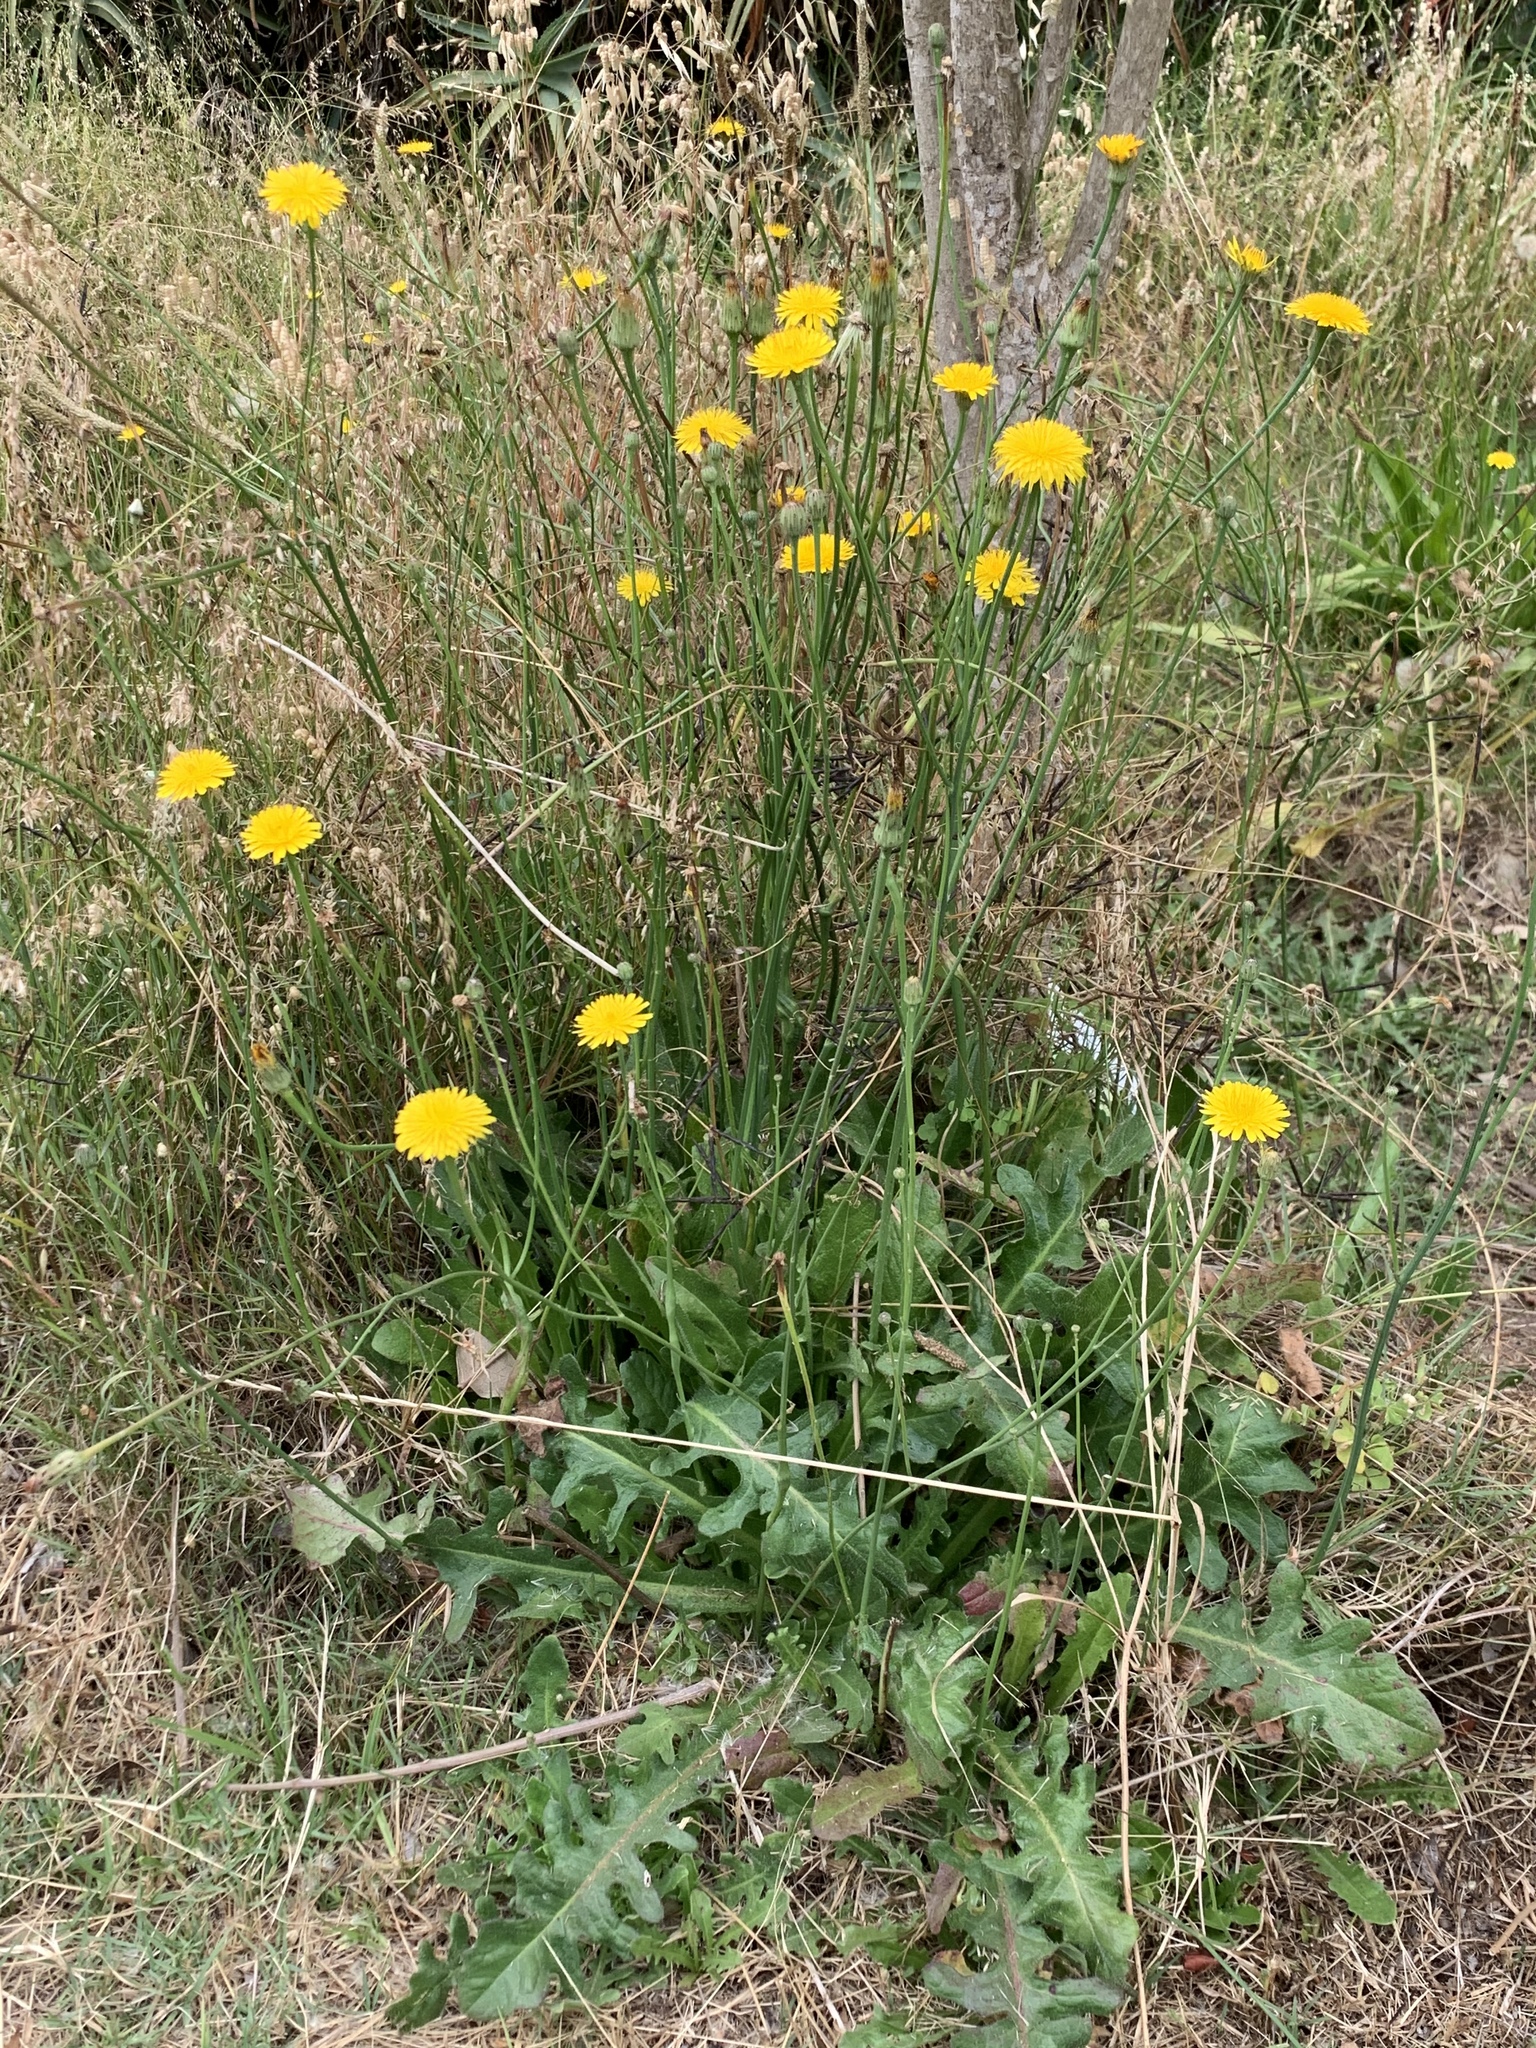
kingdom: Plantae
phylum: Tracheophyta
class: Magnoliopsida
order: Asterales
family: Asteraceae
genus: Hypochaeris
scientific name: Hypochaeris radicata
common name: Flatweed
